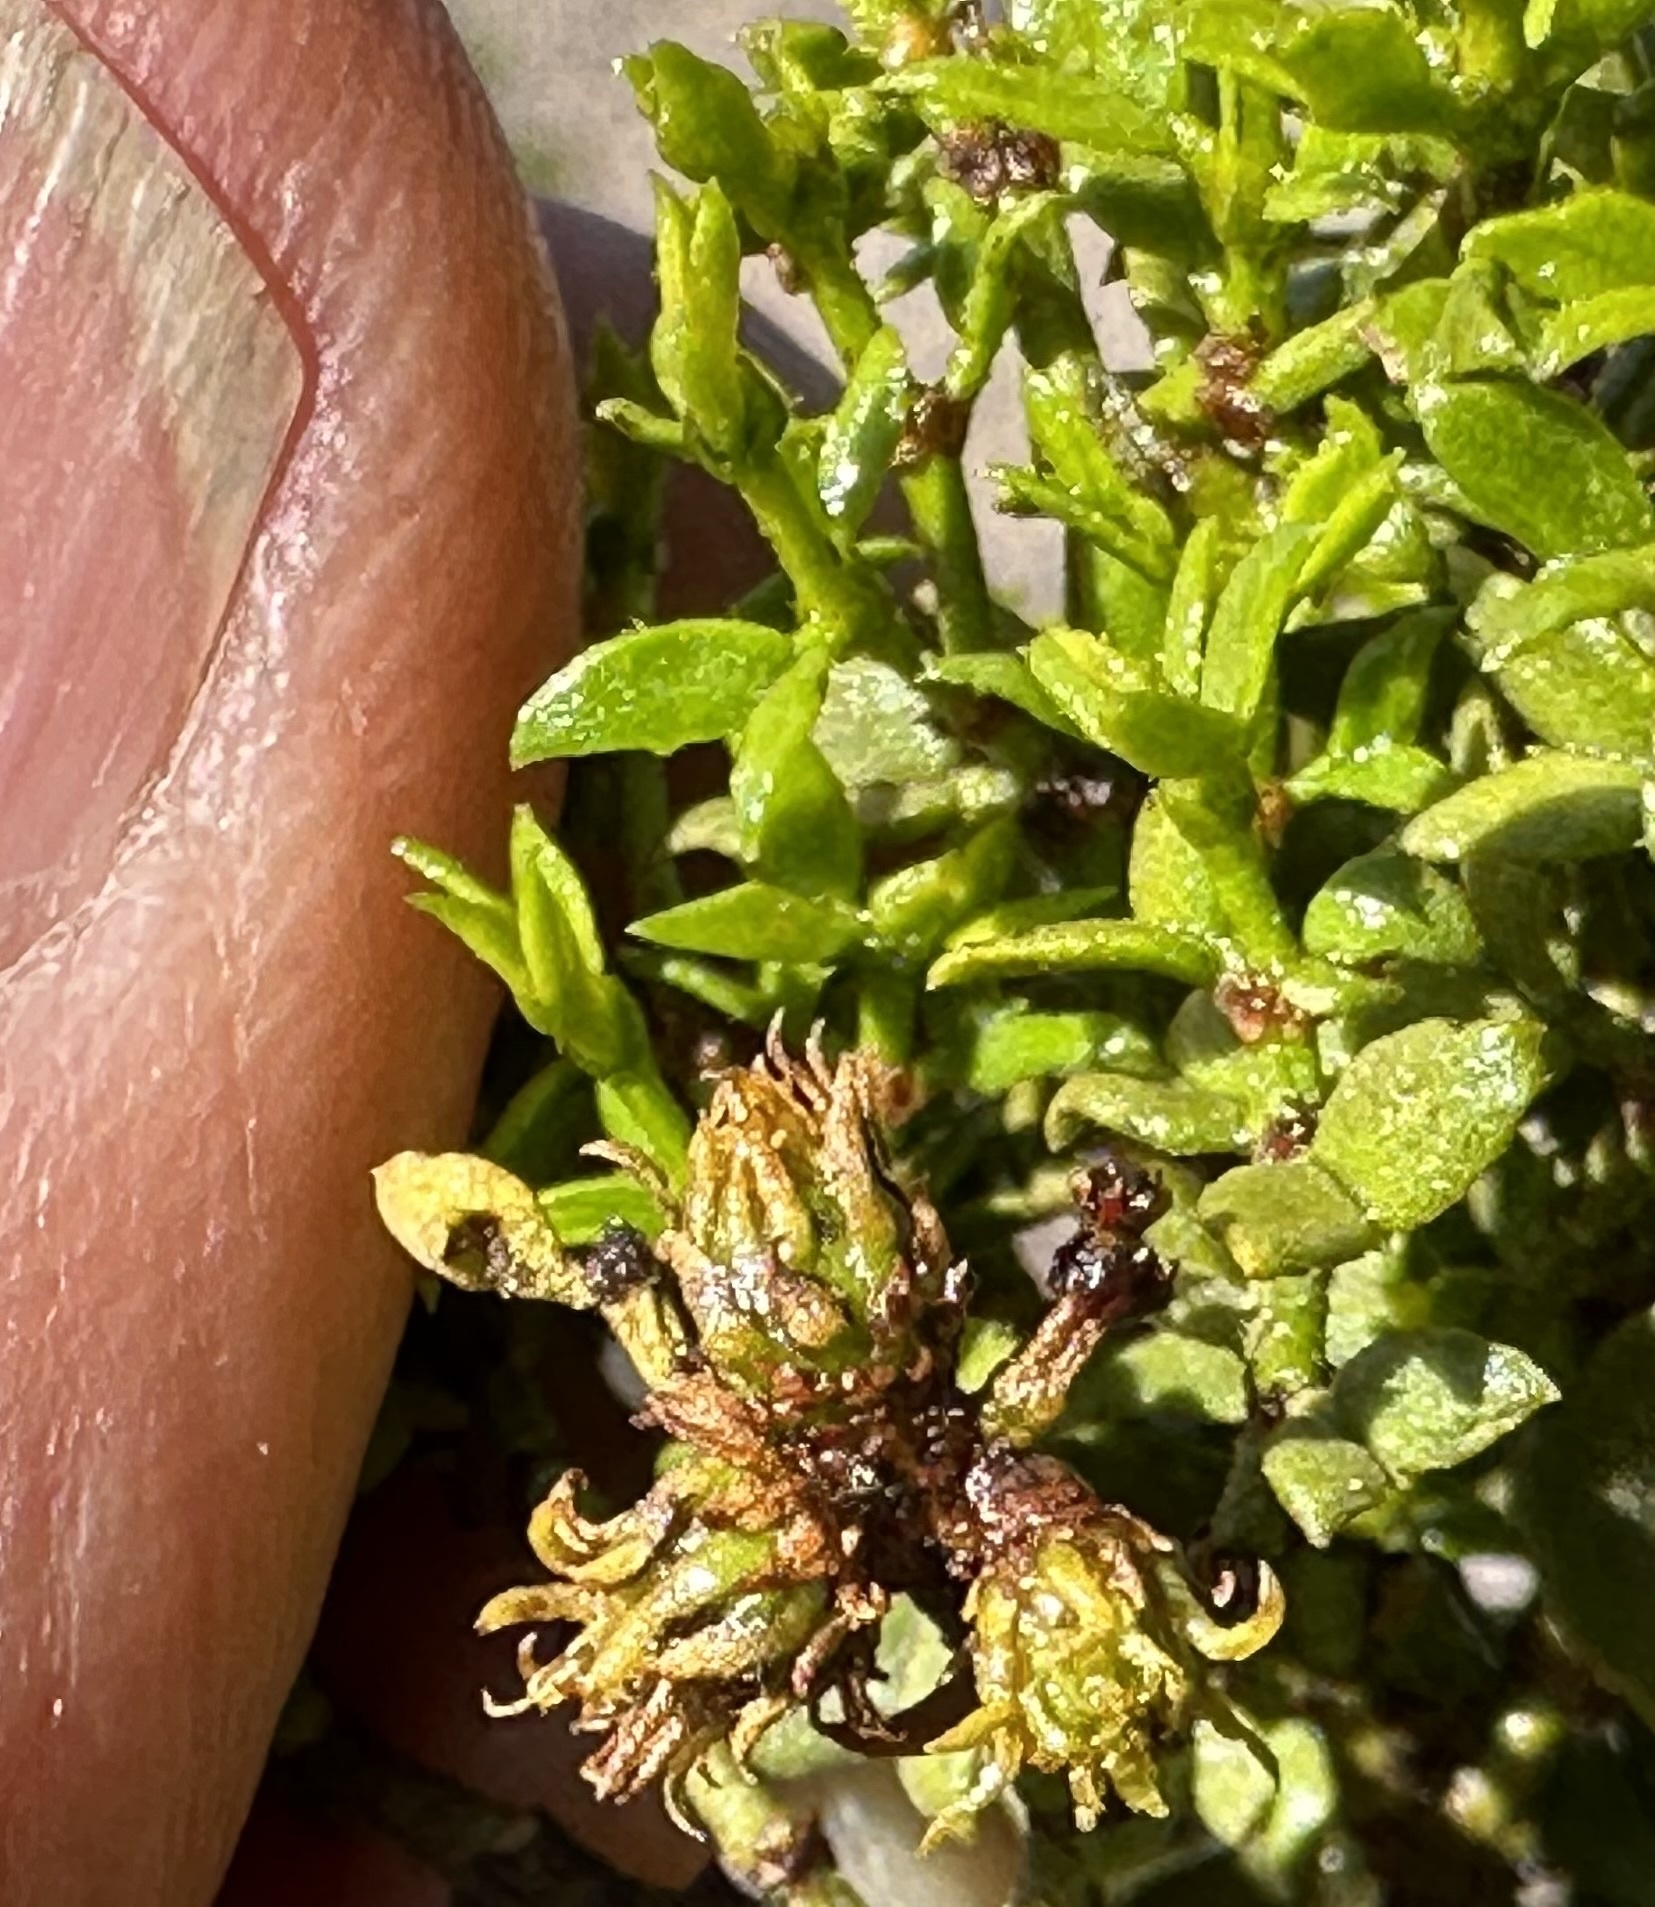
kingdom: Animalia
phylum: Arthropoda
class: Insecta
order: Diptera
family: Cecidomyiidae
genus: Asphondylia
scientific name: Asphondylia rosetta
